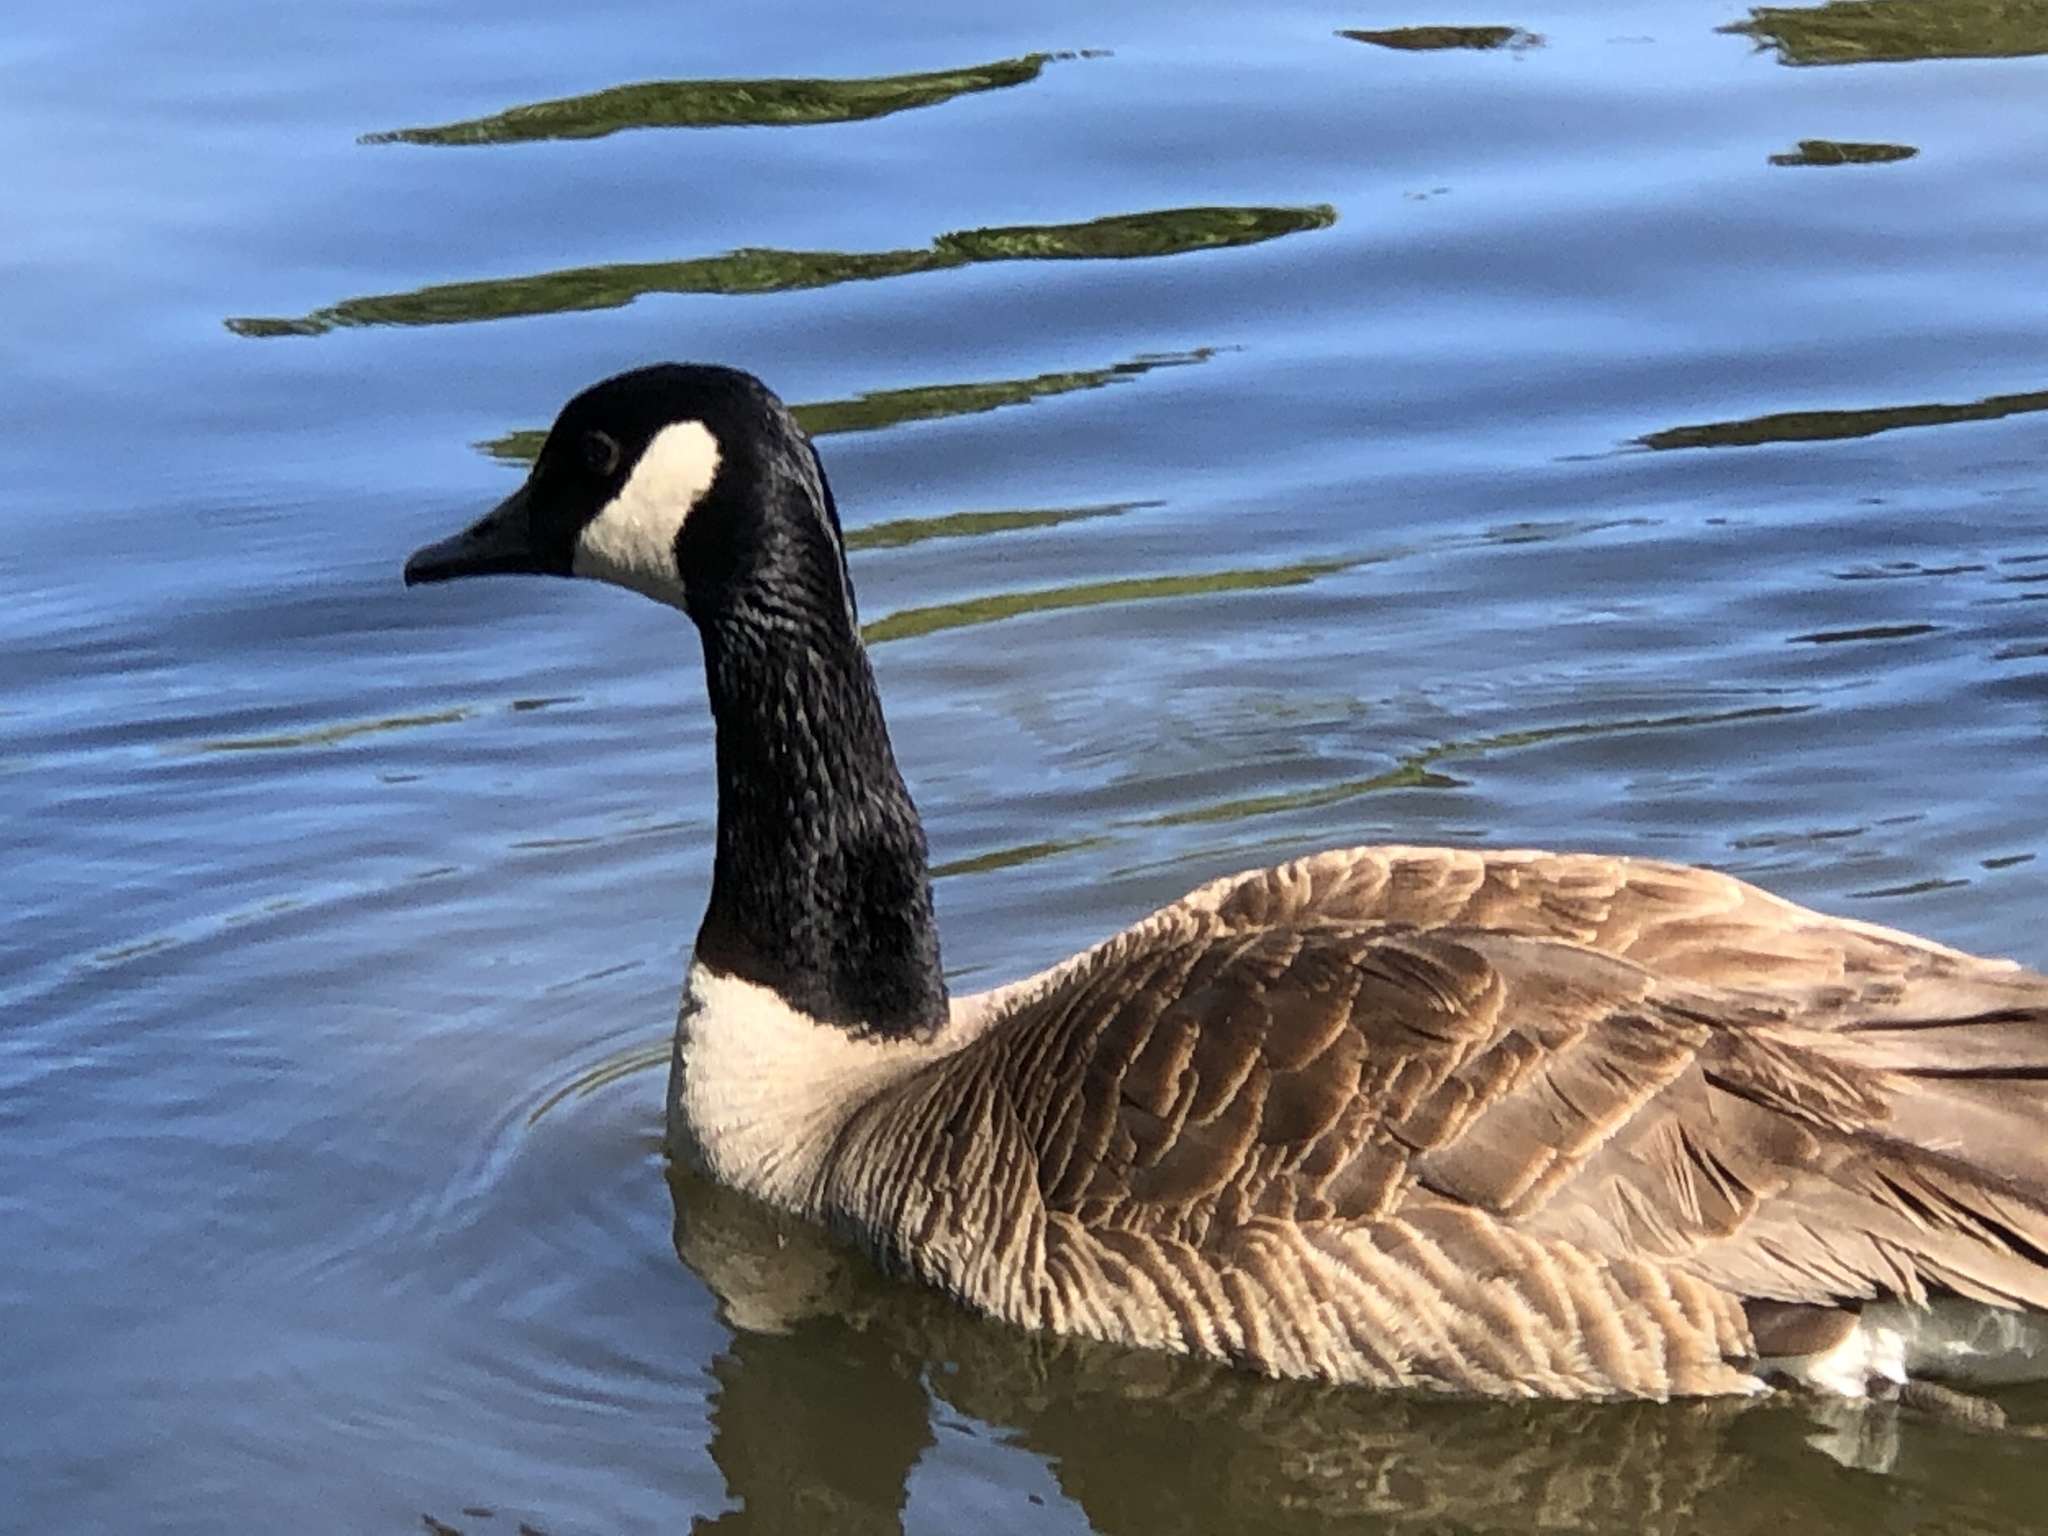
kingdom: Animalia
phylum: Chordata
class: Aves
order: Anseriformes
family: Anatidae
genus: Branta
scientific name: Branta canadensis
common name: Canada goose
